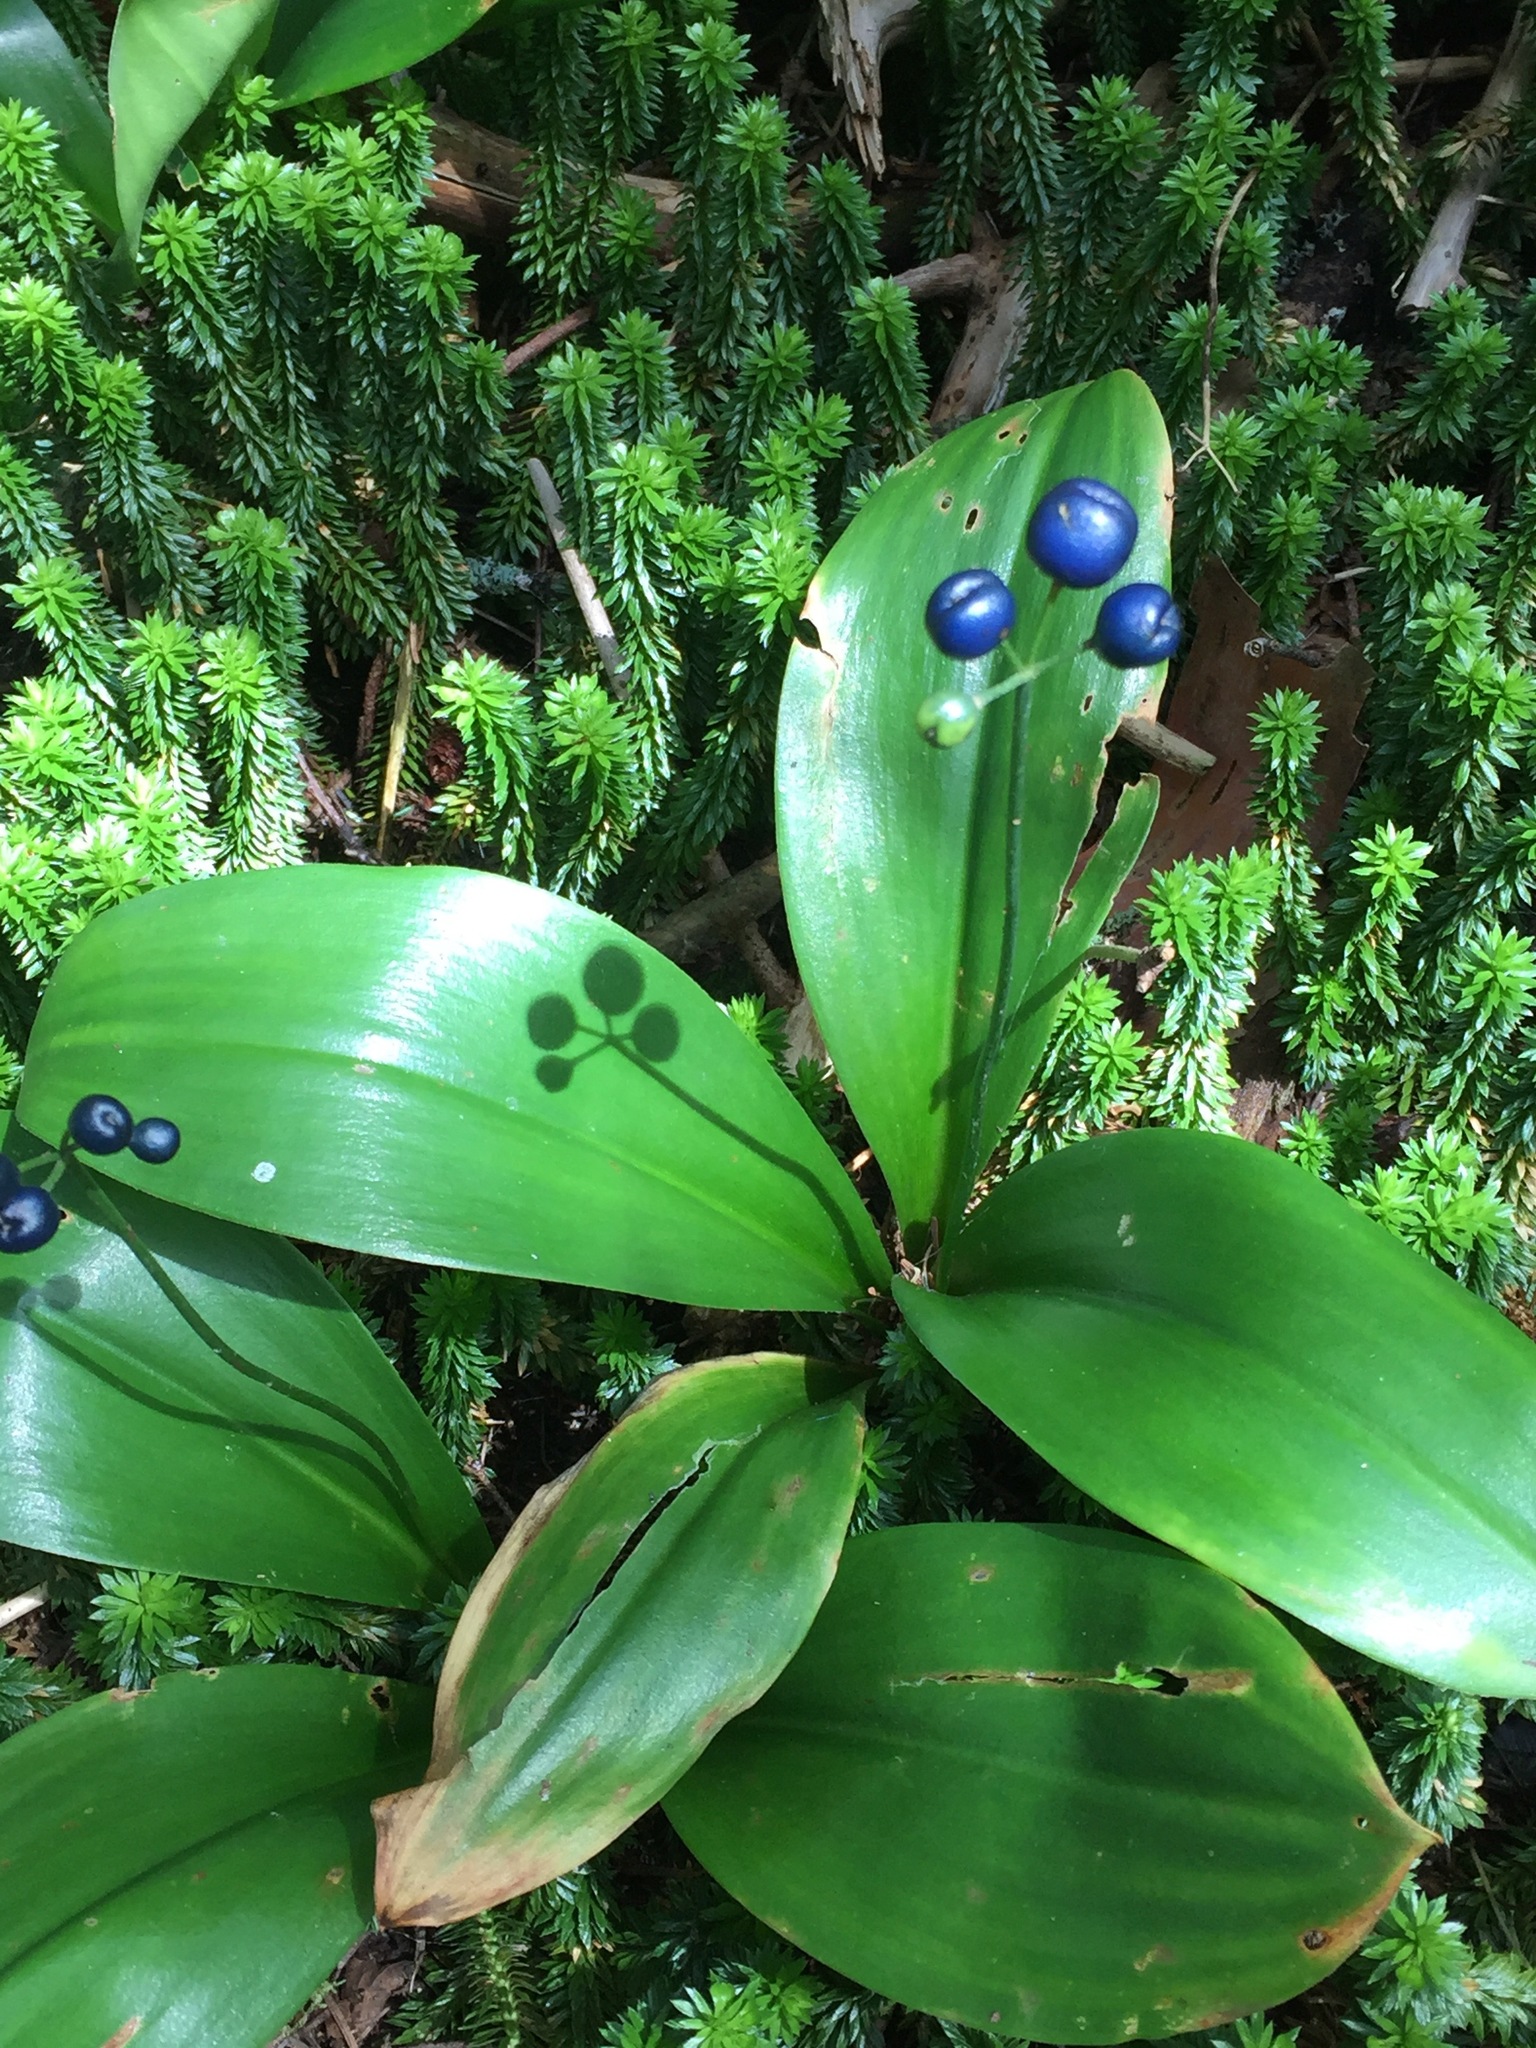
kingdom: Plantae
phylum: Tracheophyta
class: Liliopsida
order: Liliales
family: Liliaceae
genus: Clintonia
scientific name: Clintonia borealis
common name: Yellow clintonia
